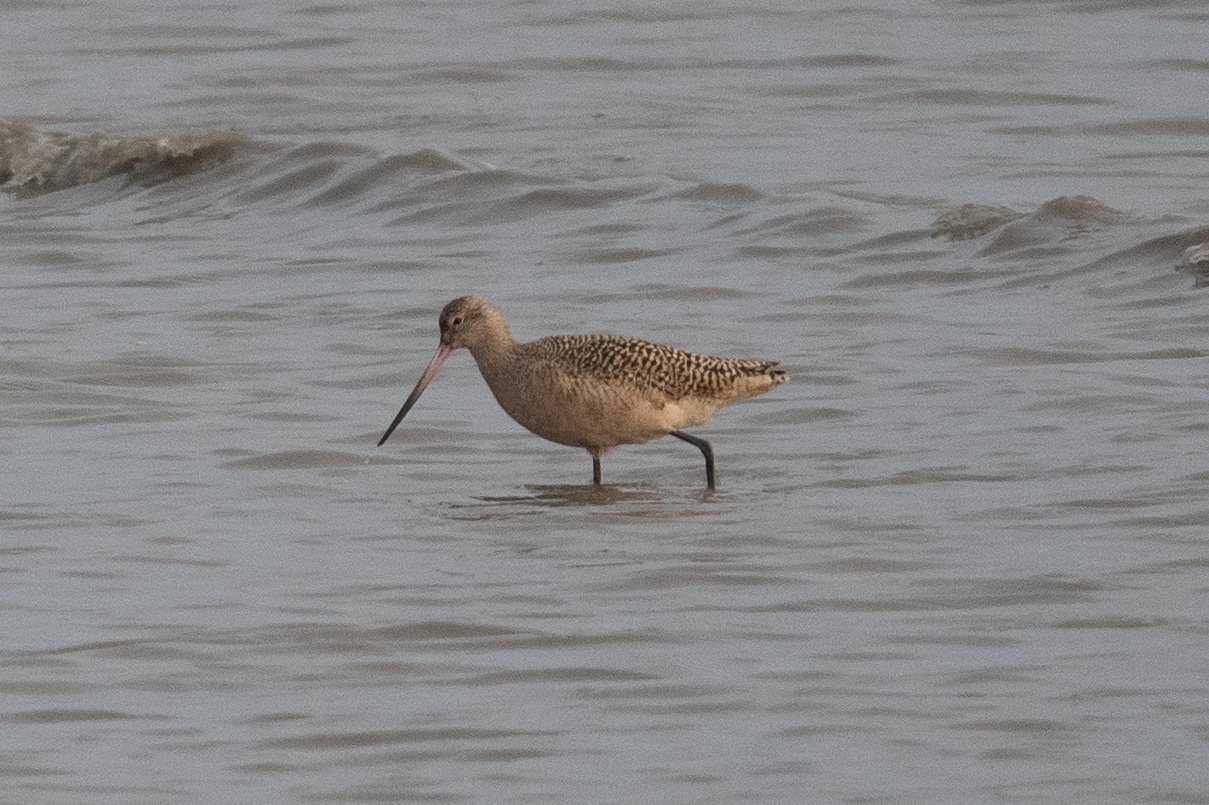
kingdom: Animalia
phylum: Chordata
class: Aves
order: Charadriiformes
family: Scolopacidae
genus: Limosa
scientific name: Limosa fedoa
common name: Marbled godwit
